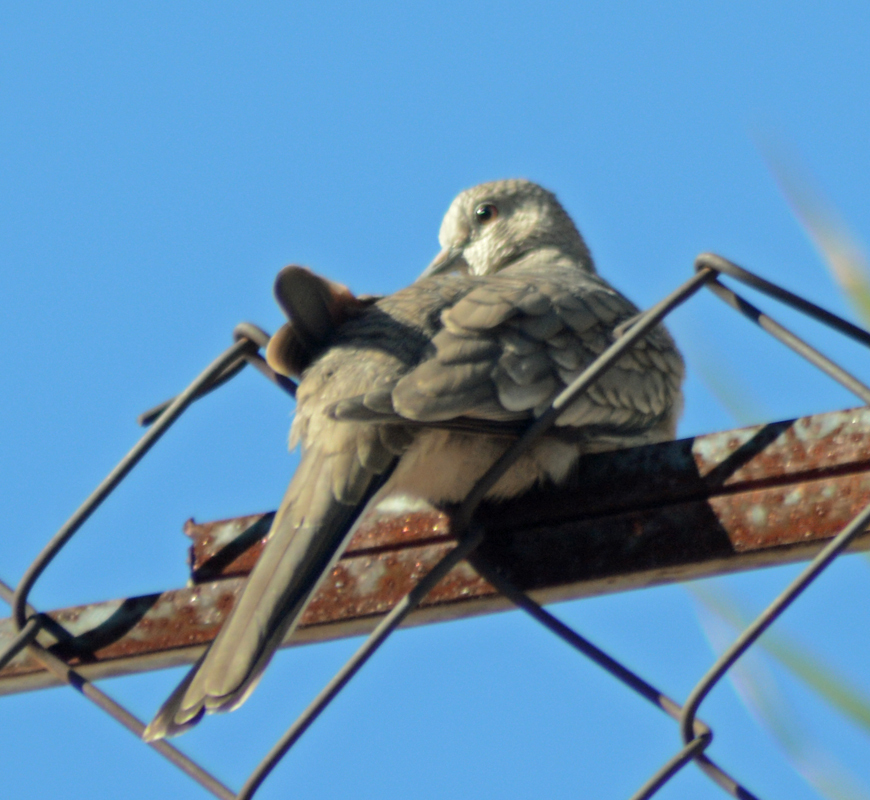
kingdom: Animalia
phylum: Chordata
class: Aves
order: Columbiformes
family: Columbidae
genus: Columbina
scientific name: Columbina inca
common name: Inca dove
